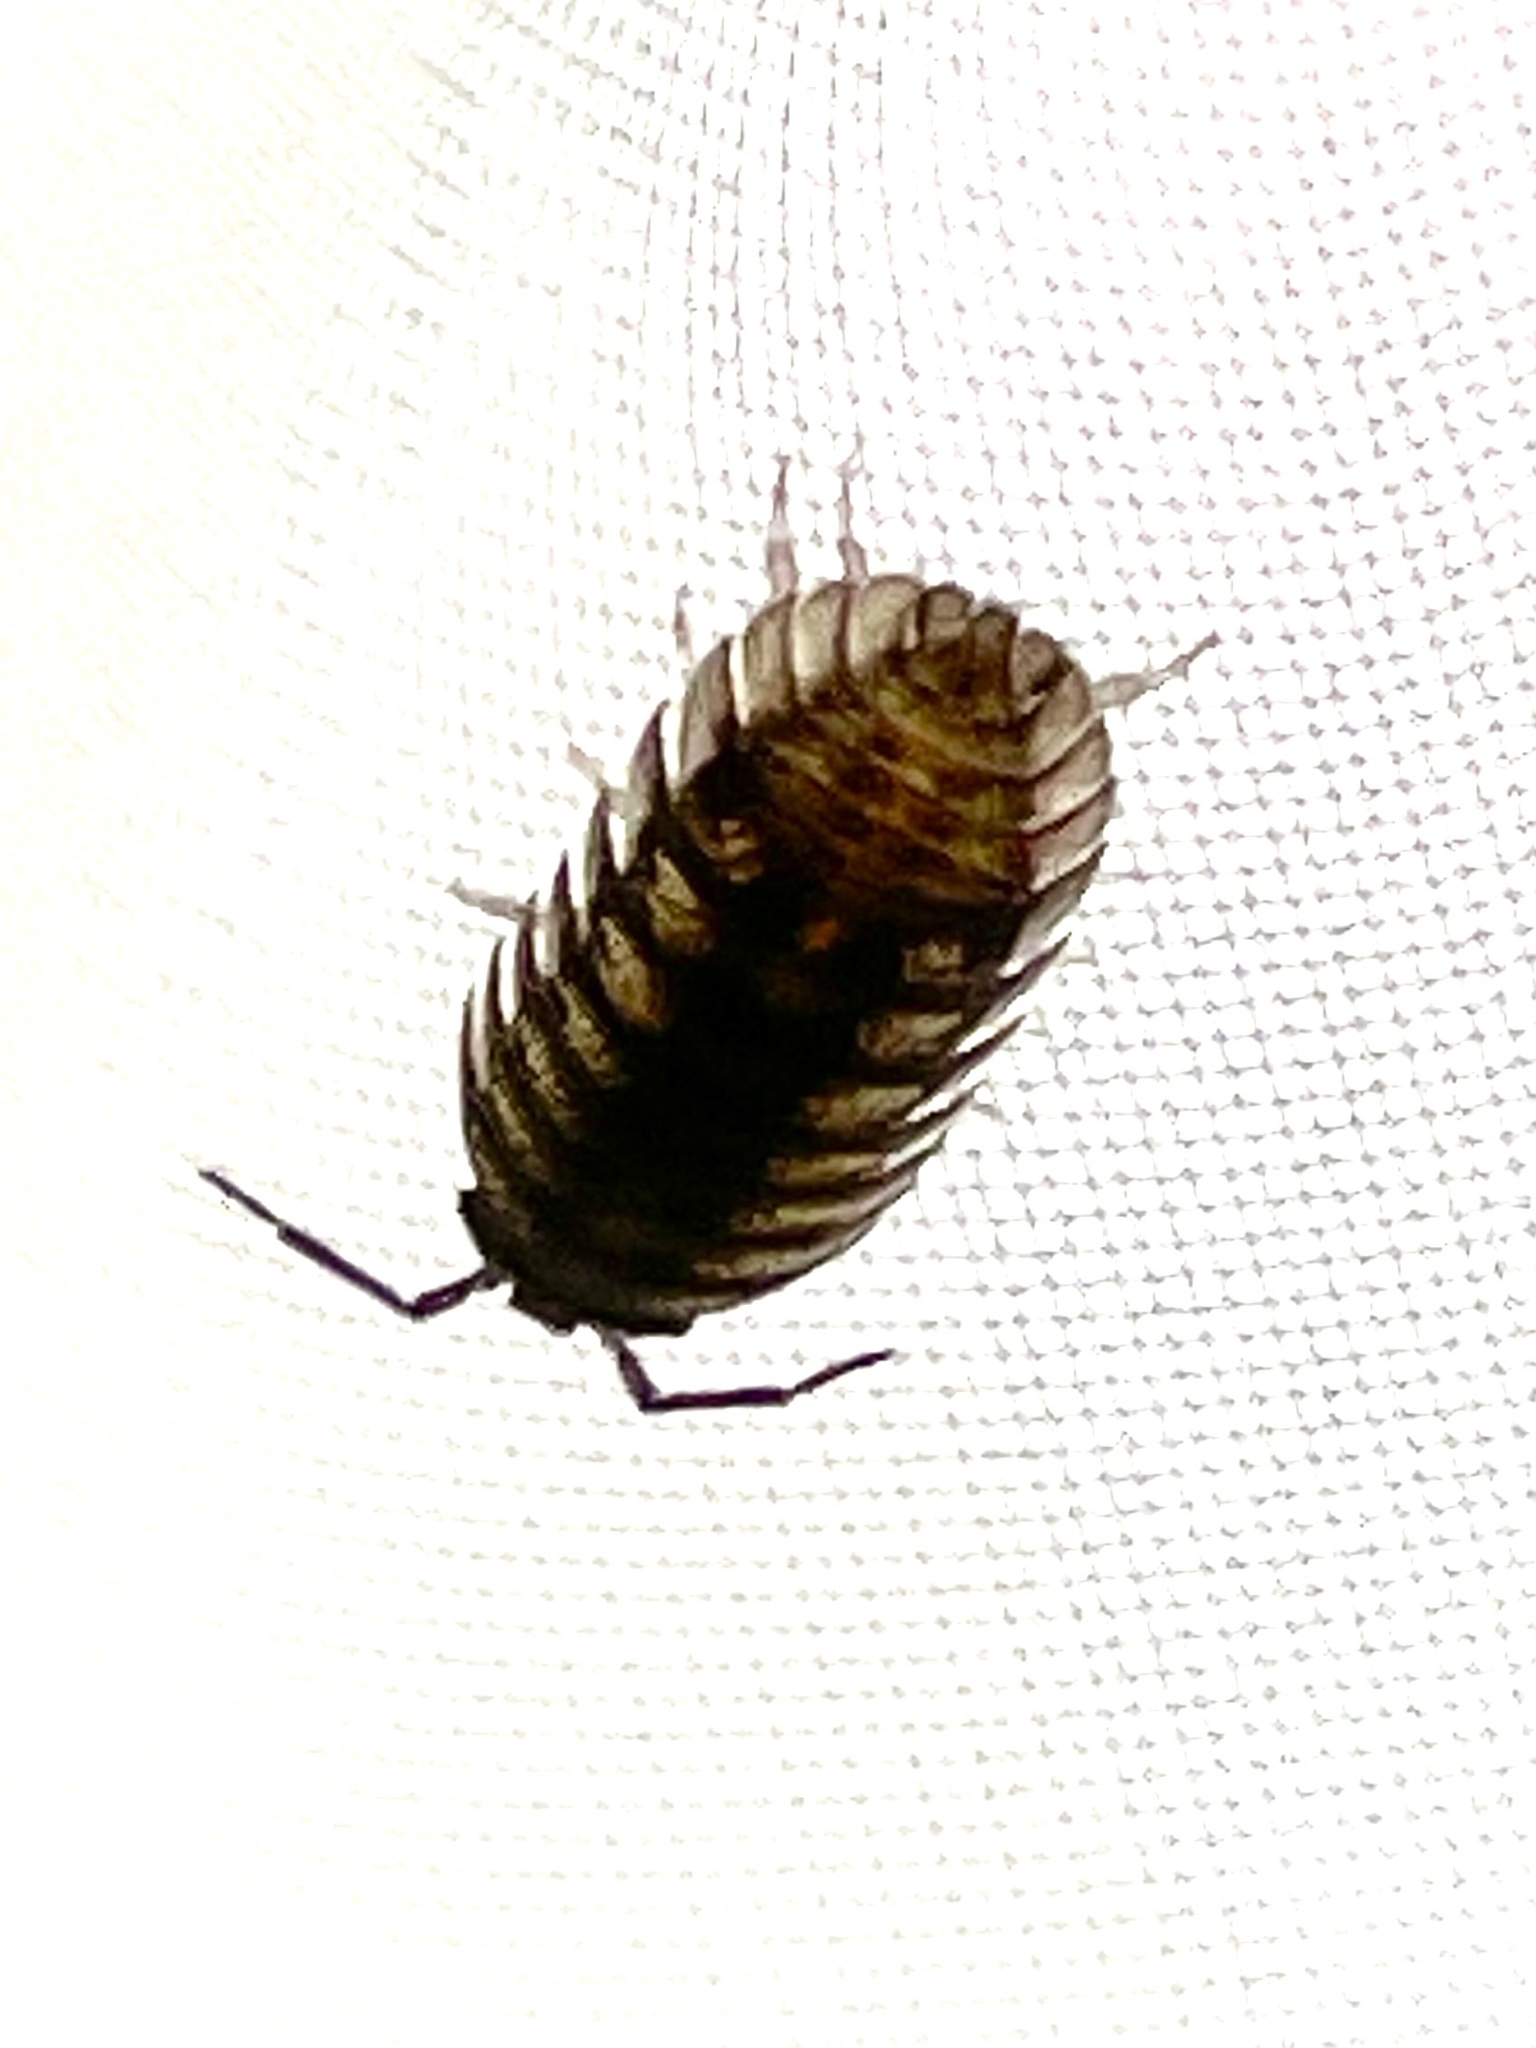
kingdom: Animalia
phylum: Arthropoda
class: Malacostraca
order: Isopoda
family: Armadillidiidae
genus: Armadillidium
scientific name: Armadillidium nasatum
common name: Isopod
